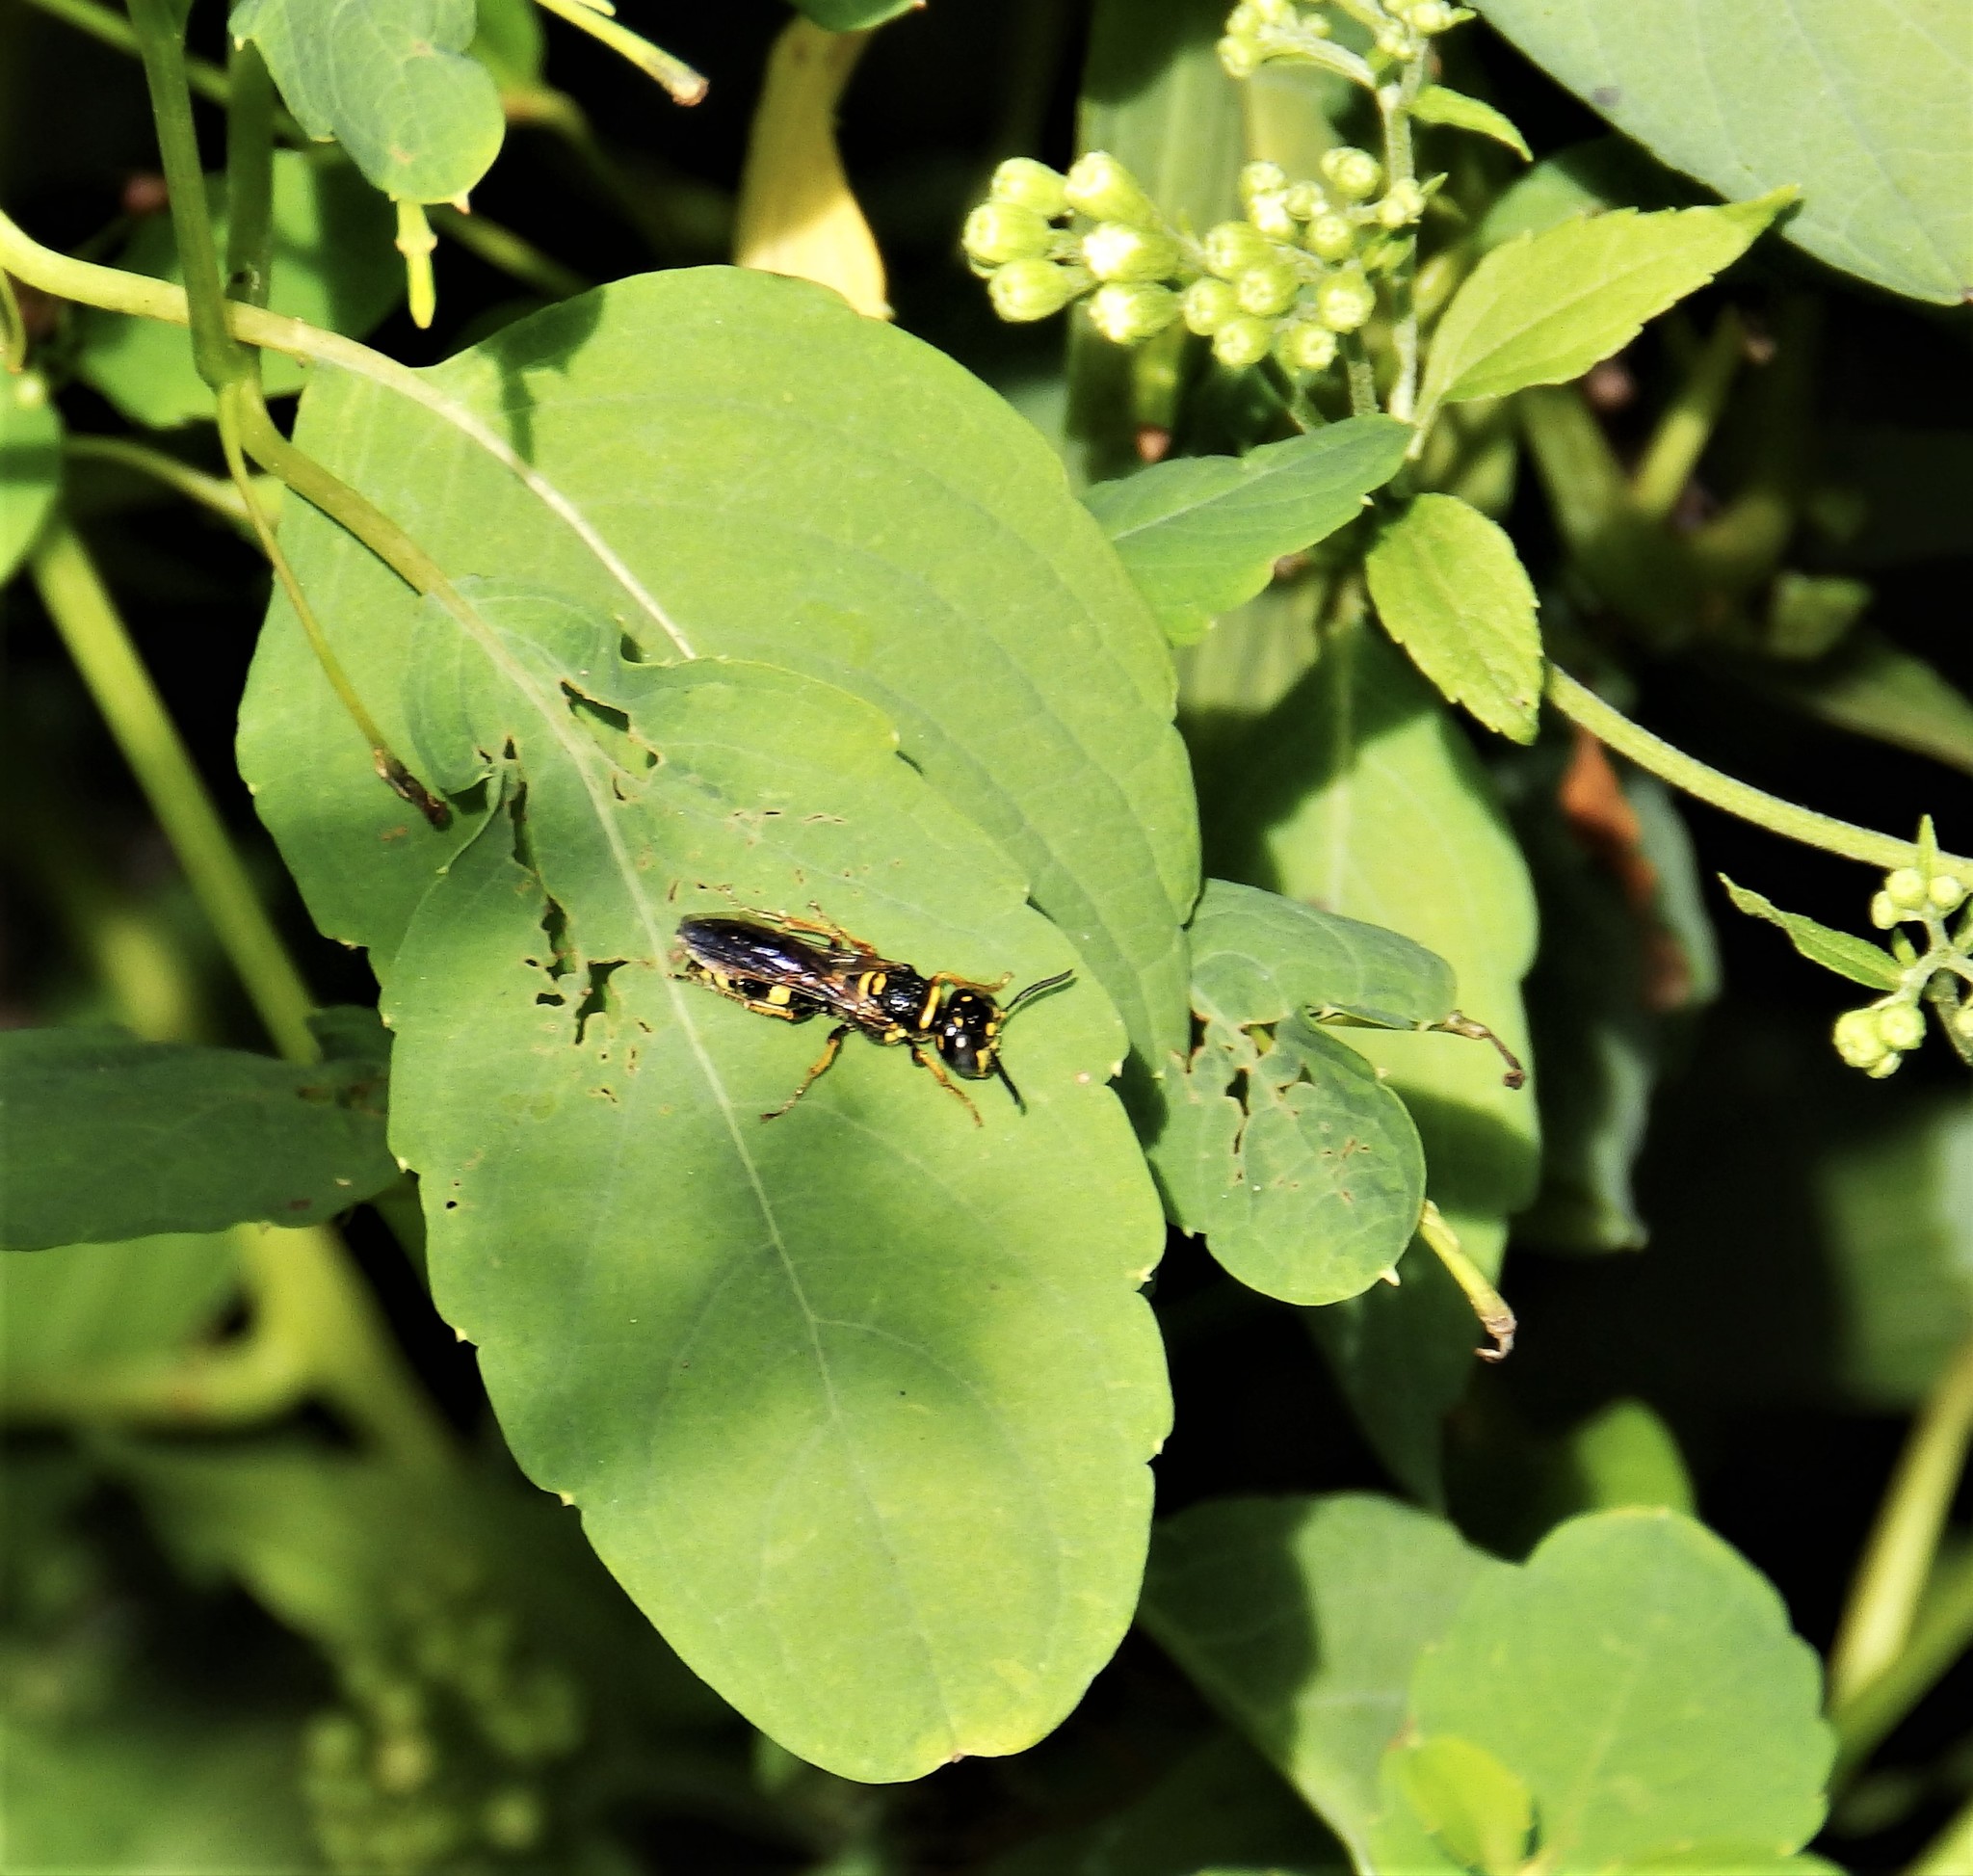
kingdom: Animalia
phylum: Arthropoda
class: Insecta
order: Hymenoptera
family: Crabronidae
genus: Philanthus
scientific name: Philanthus gibbosus
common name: Humped beewolf
